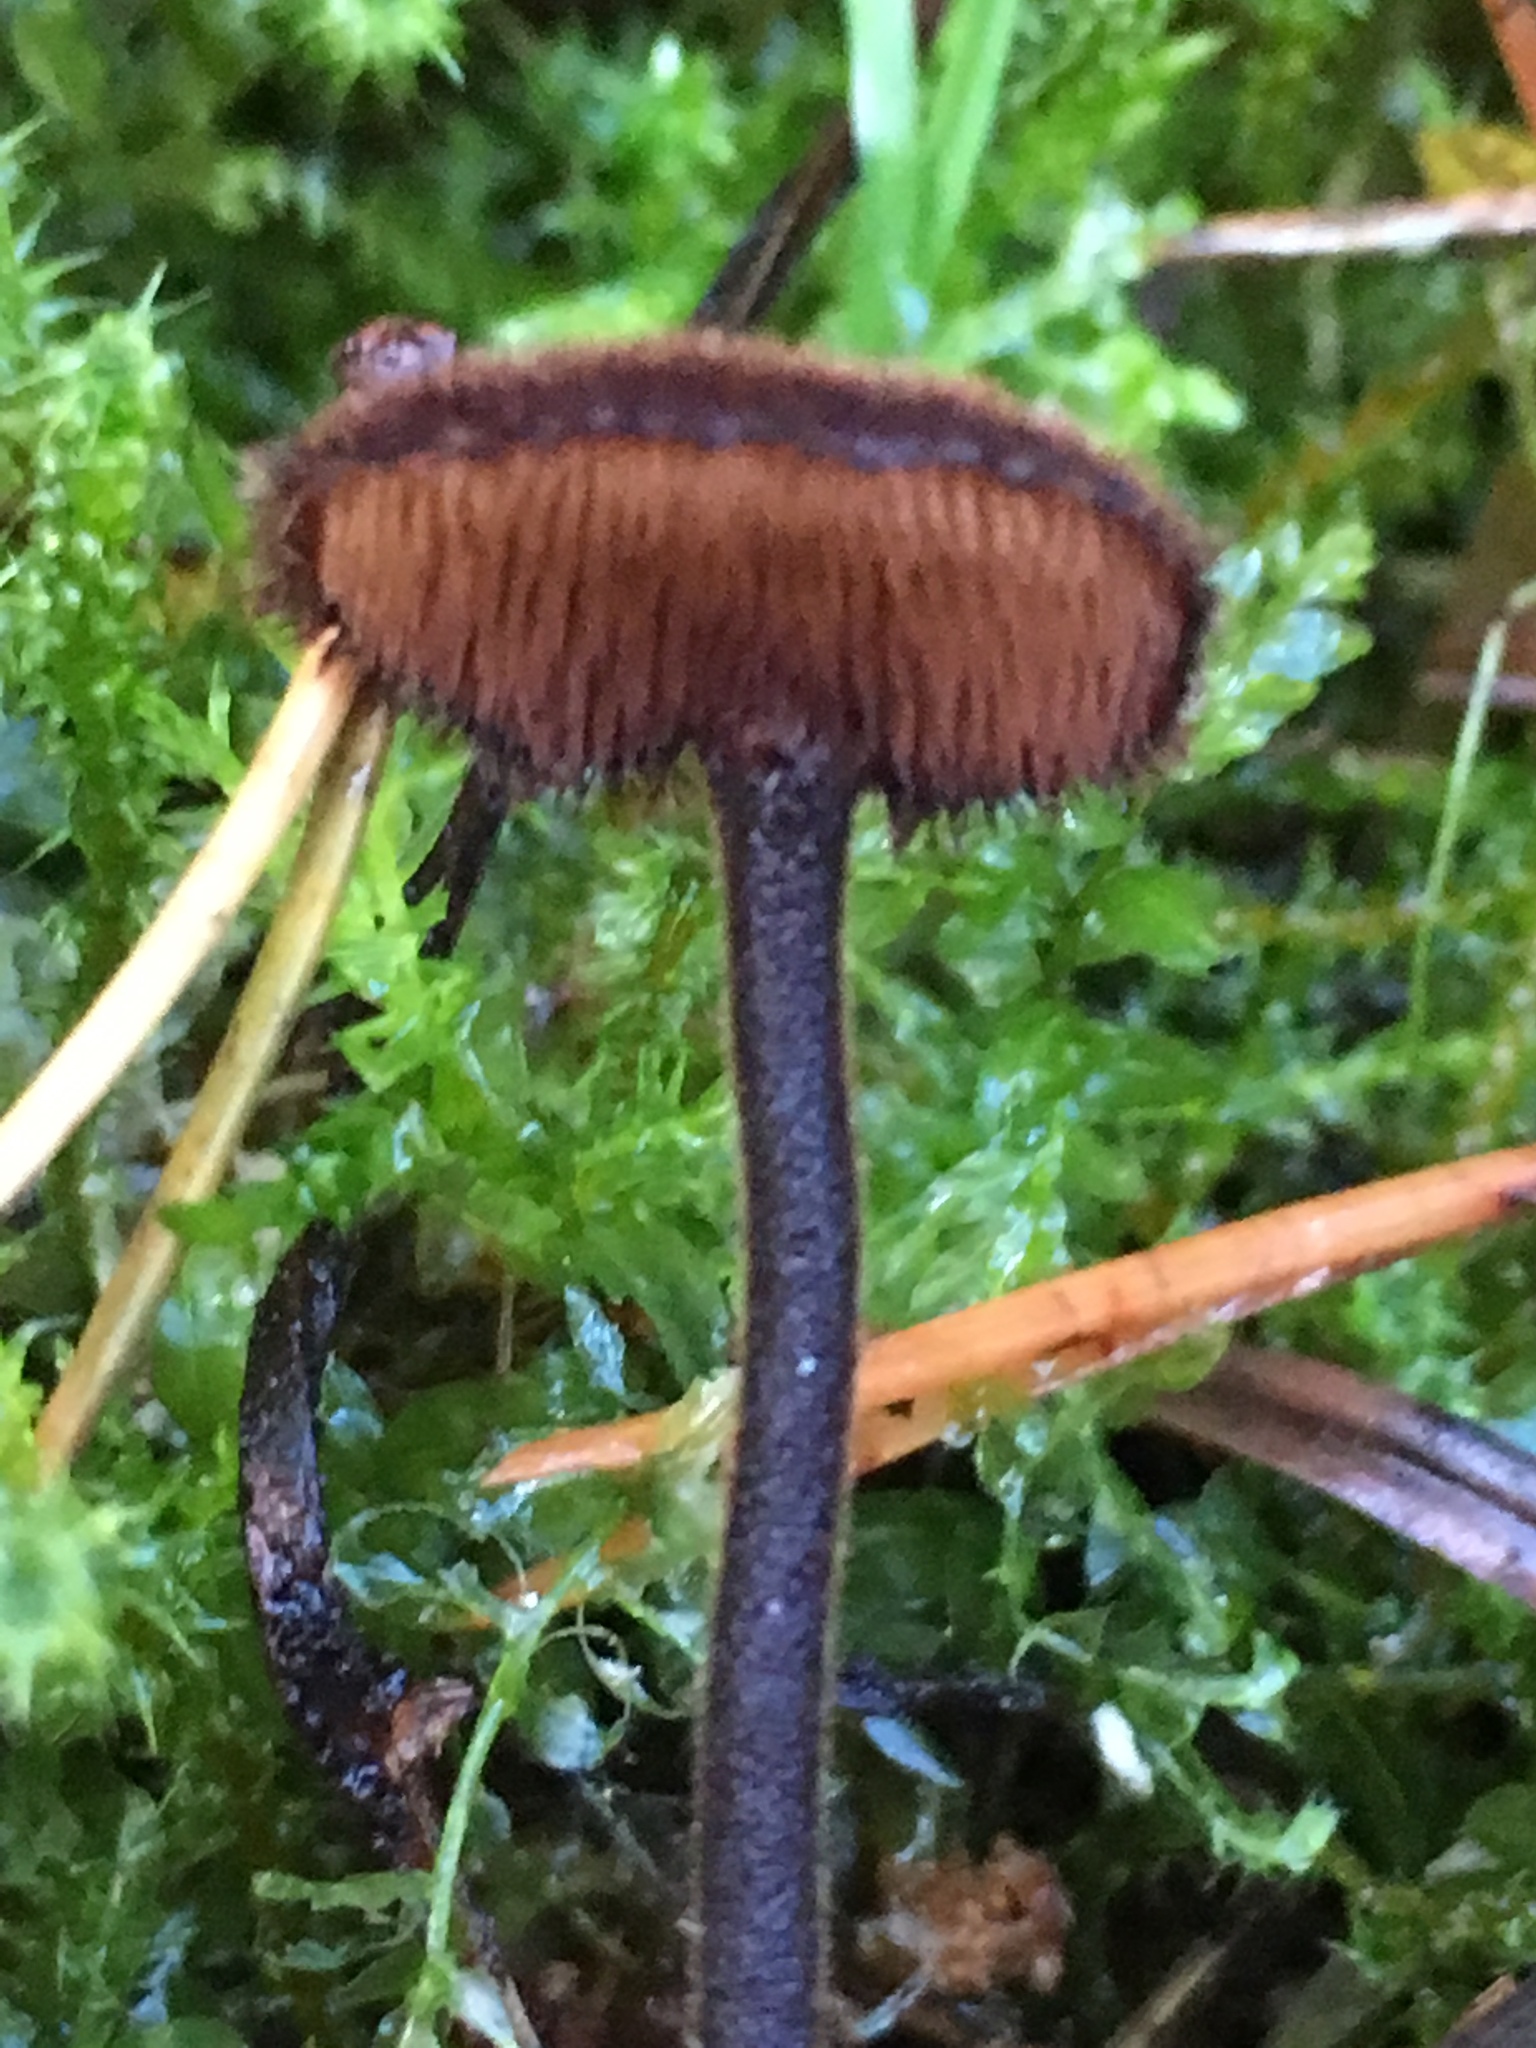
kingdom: Fungi
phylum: Basidiomycota
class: Agaricomycetes
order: Russulales
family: Auriscalpiaceae
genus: Auriscalpium
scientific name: Auriscalpium vulgare
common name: Earpick fungus
